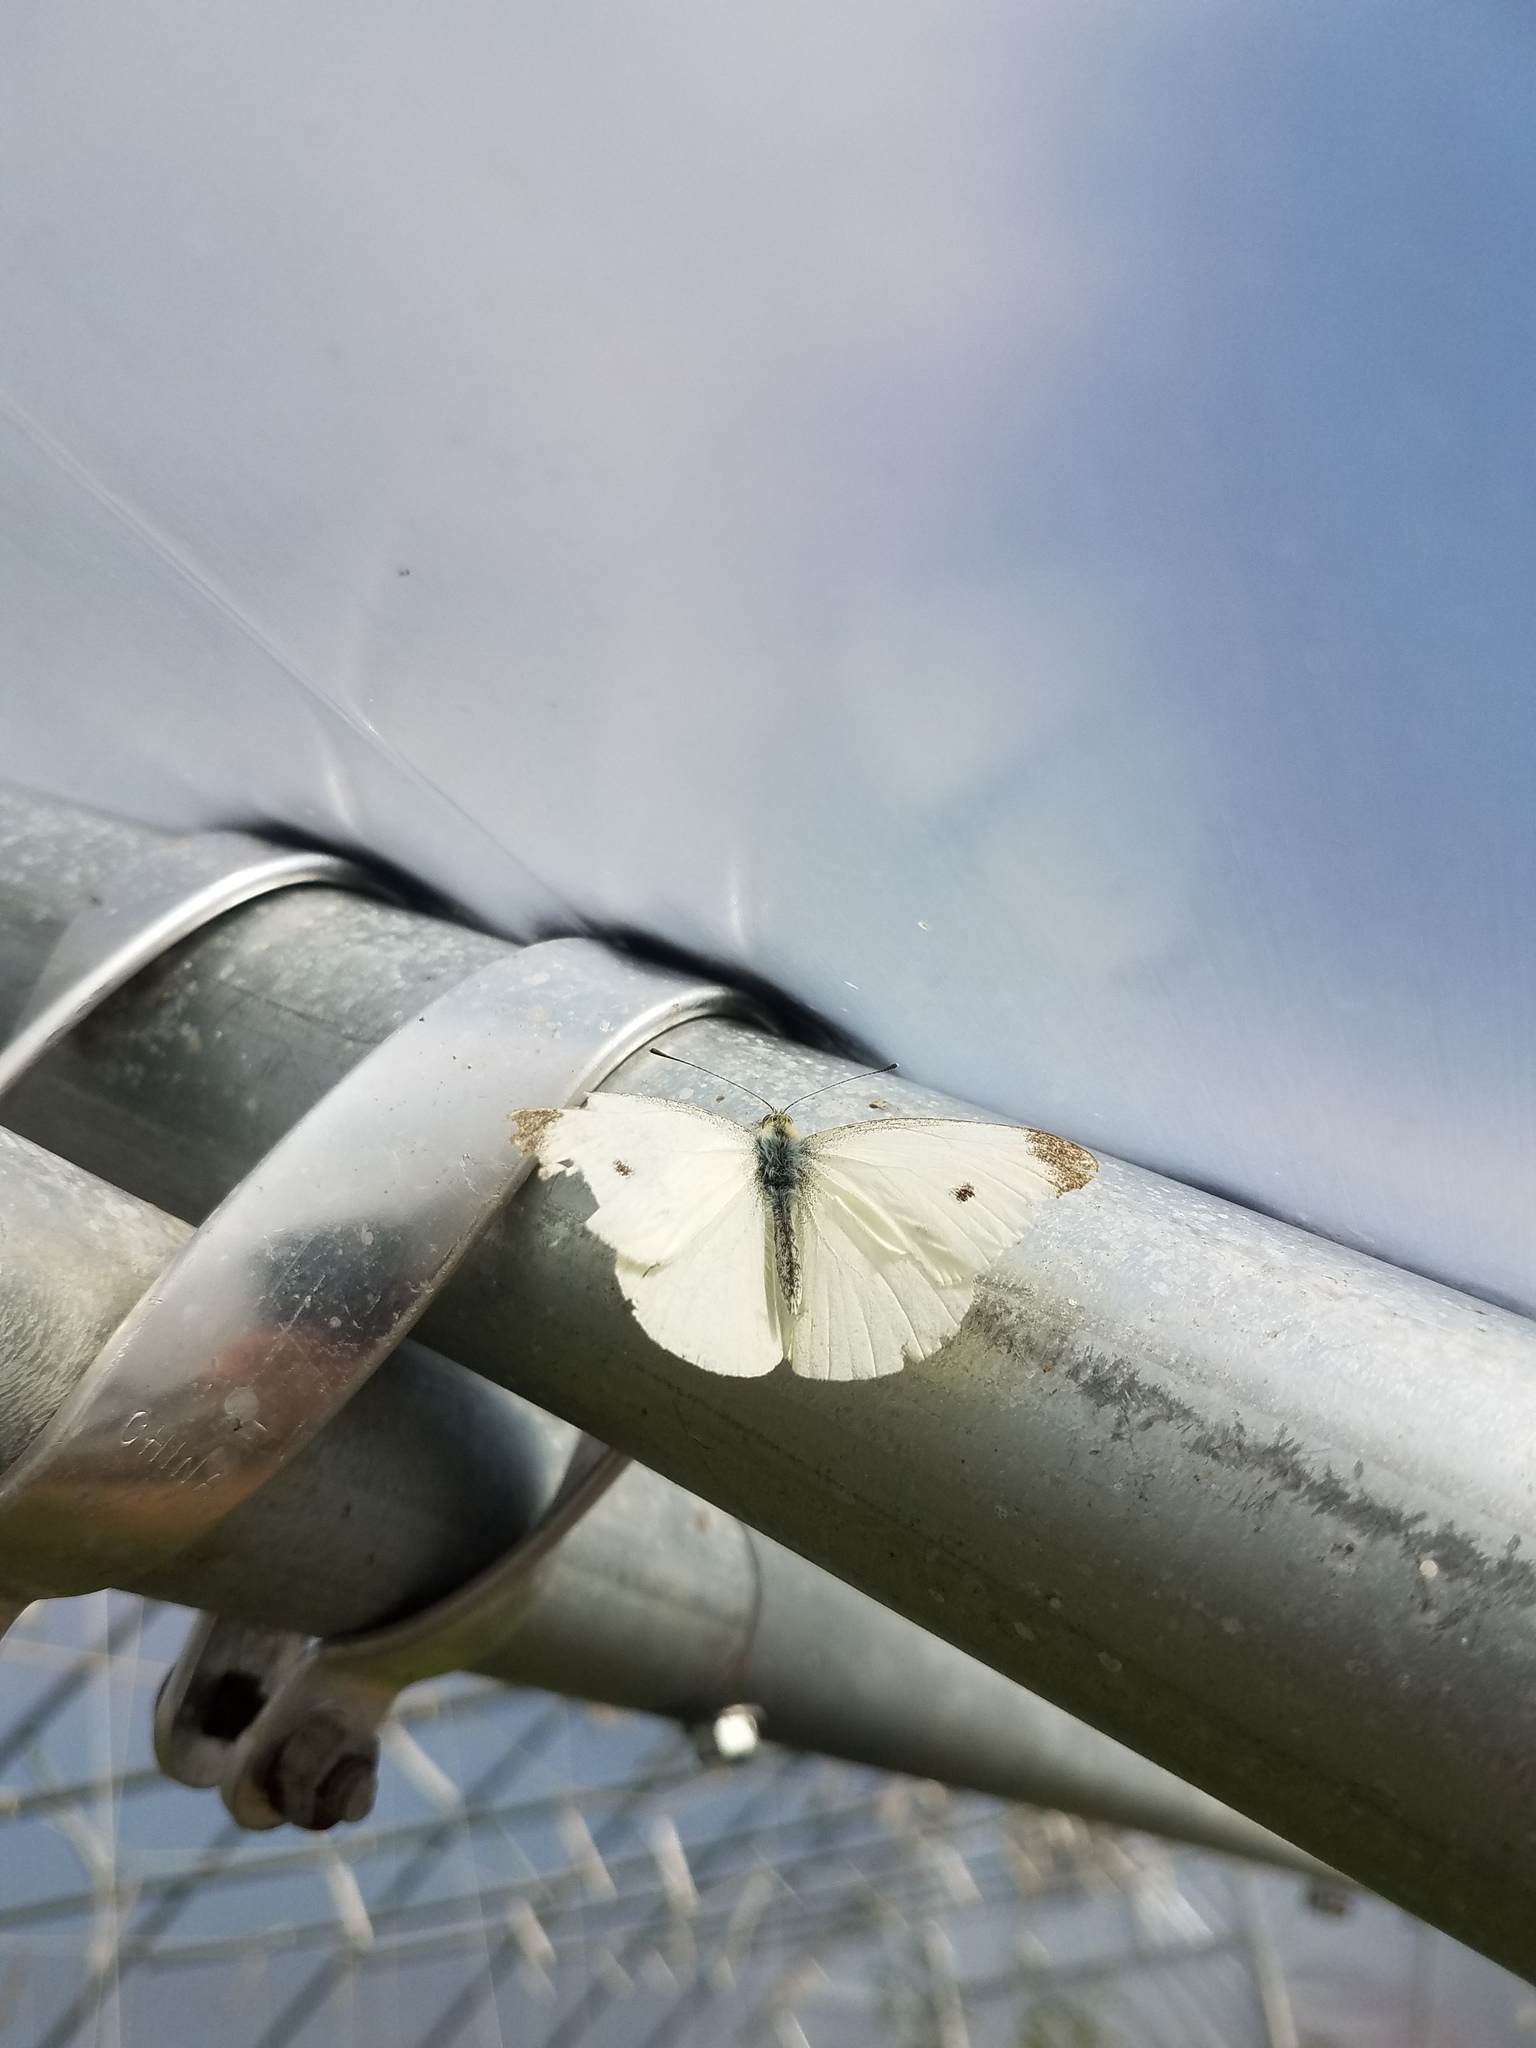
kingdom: Animalia
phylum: Arthropoda
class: Insecta
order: Lepidoptera
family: Pieridae
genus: Pieris
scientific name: Pieris rapae
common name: Small white
